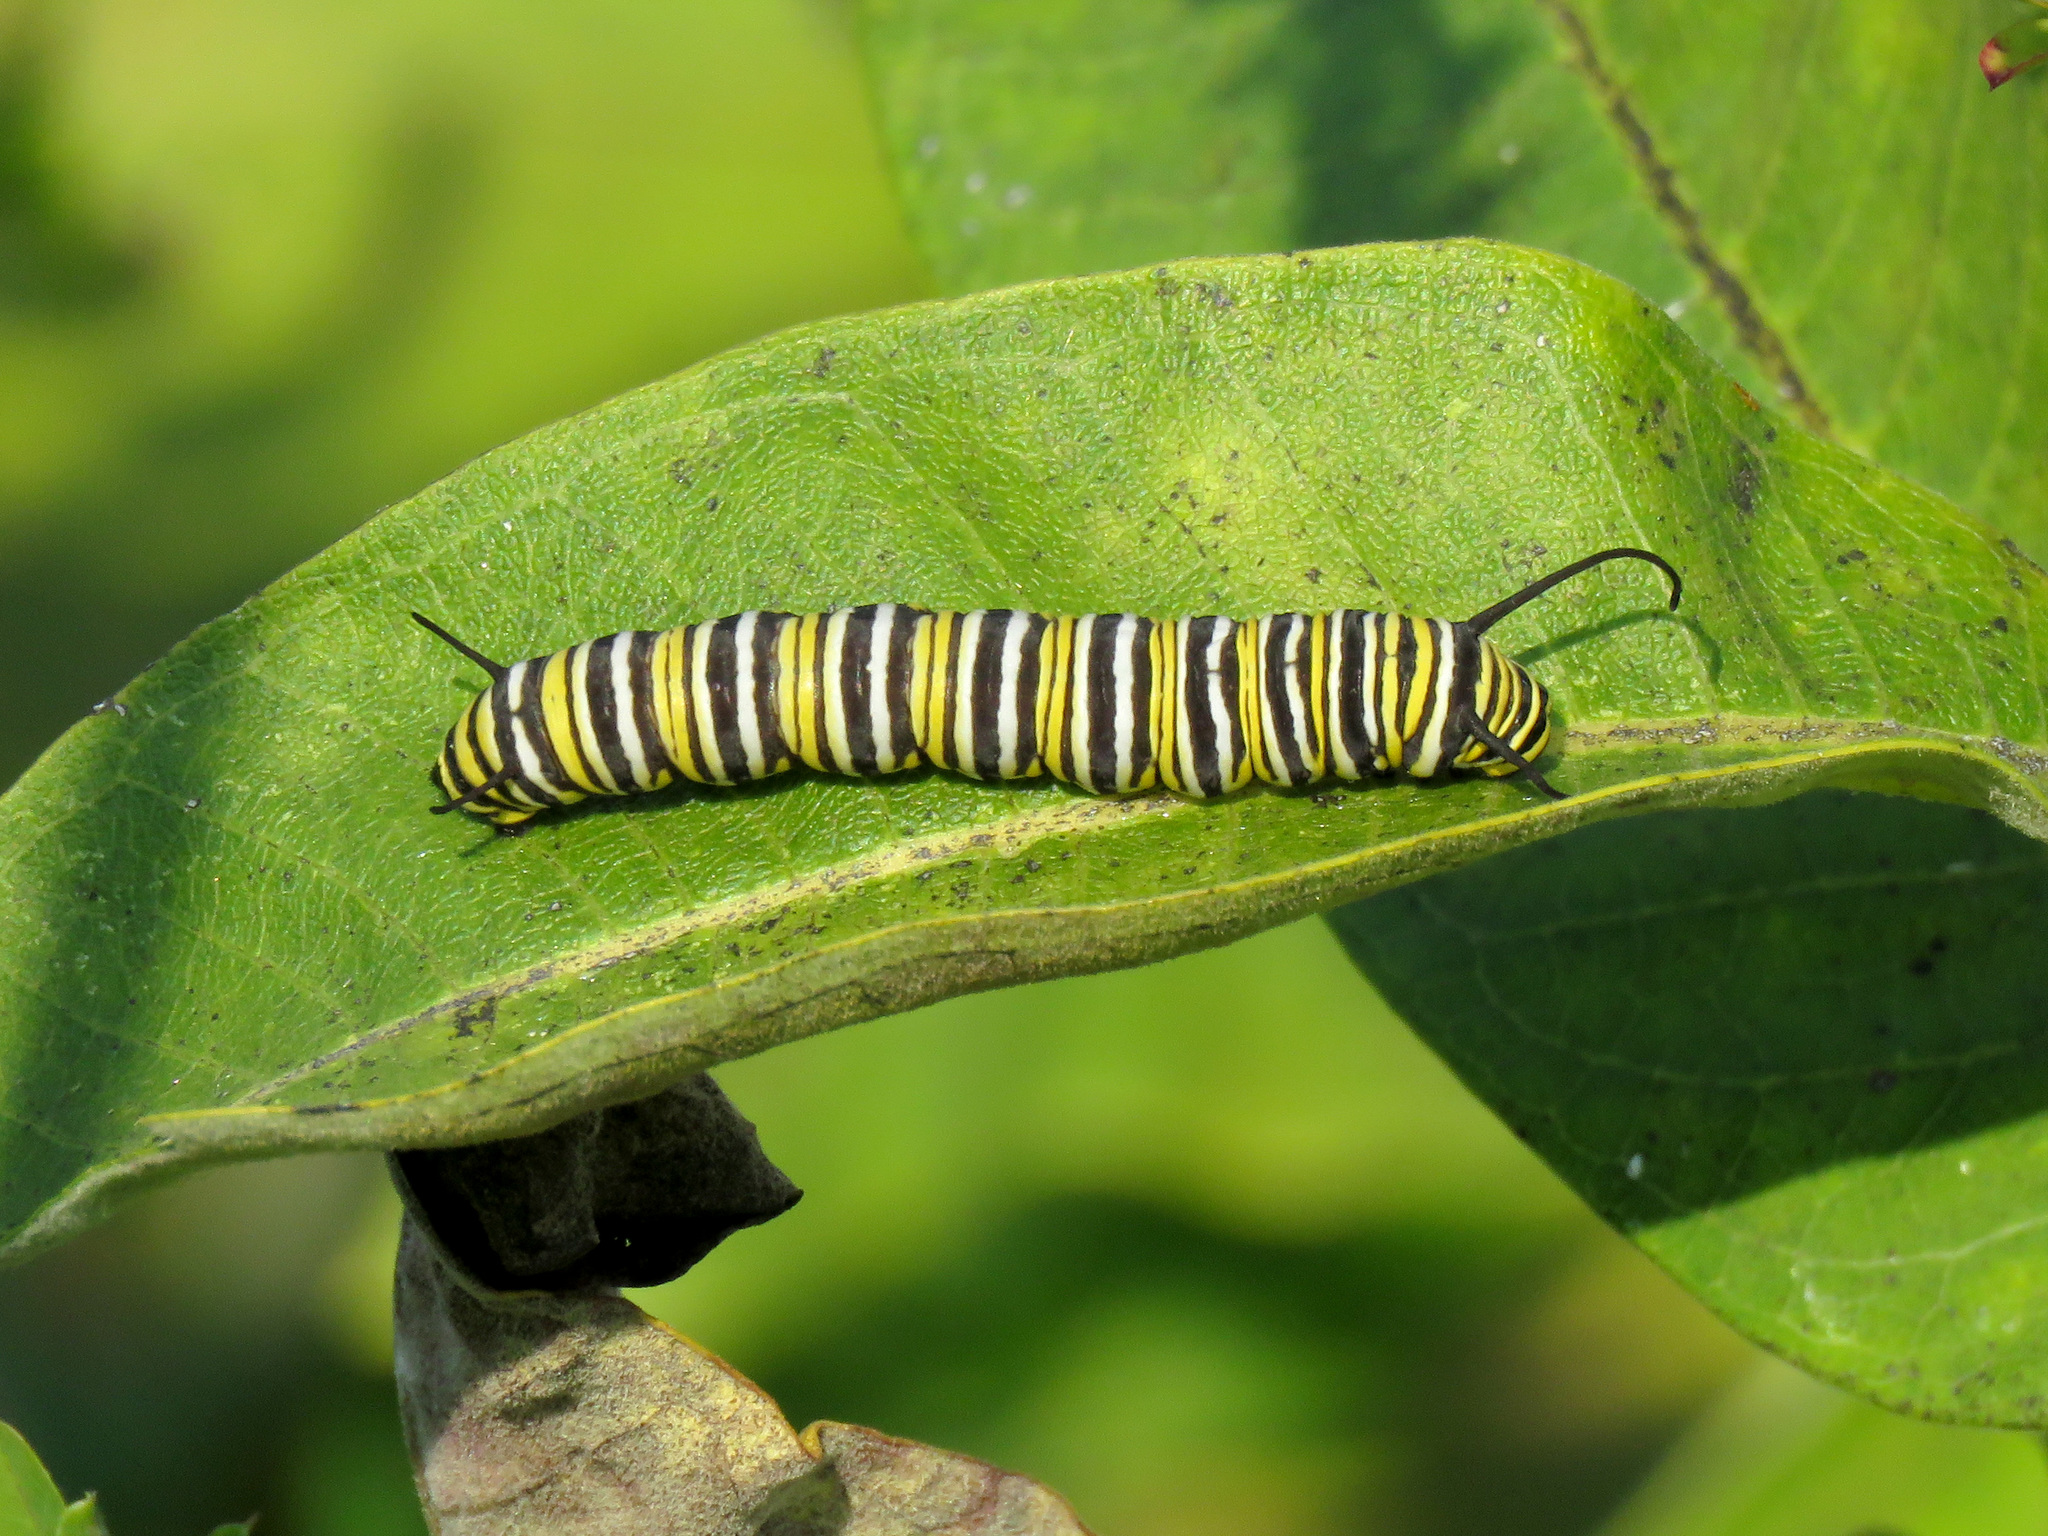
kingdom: Animalia
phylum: Arthropoda
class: Insecta
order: Lepidoptera
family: Nymphalidae
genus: Danaus
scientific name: Danaus plexippus
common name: Monarch
